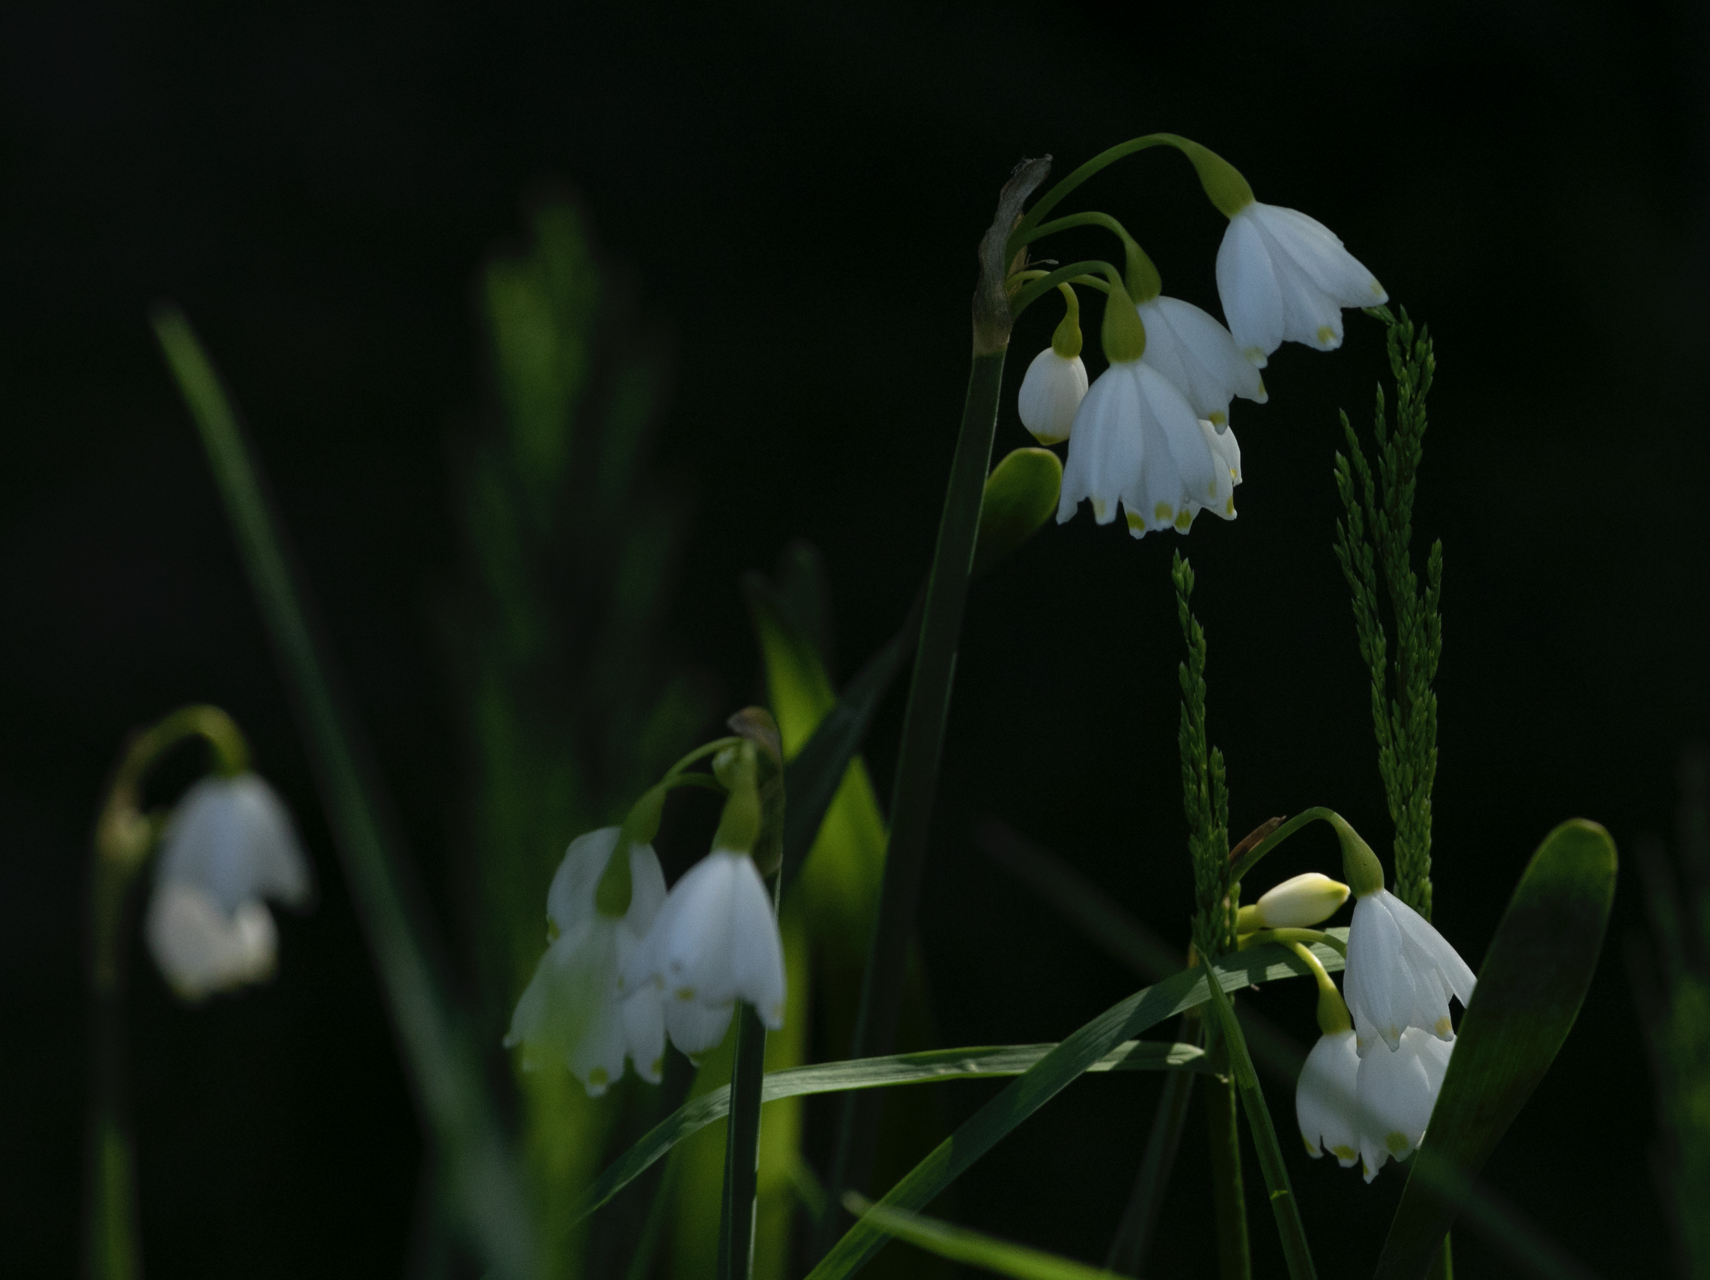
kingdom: Plantae
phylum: Tracheophyta
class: Liliopsida
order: Asparagales
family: Amaryllidaceae
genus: Leucojum
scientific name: Leucojum aestivum
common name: Summer snowflake
